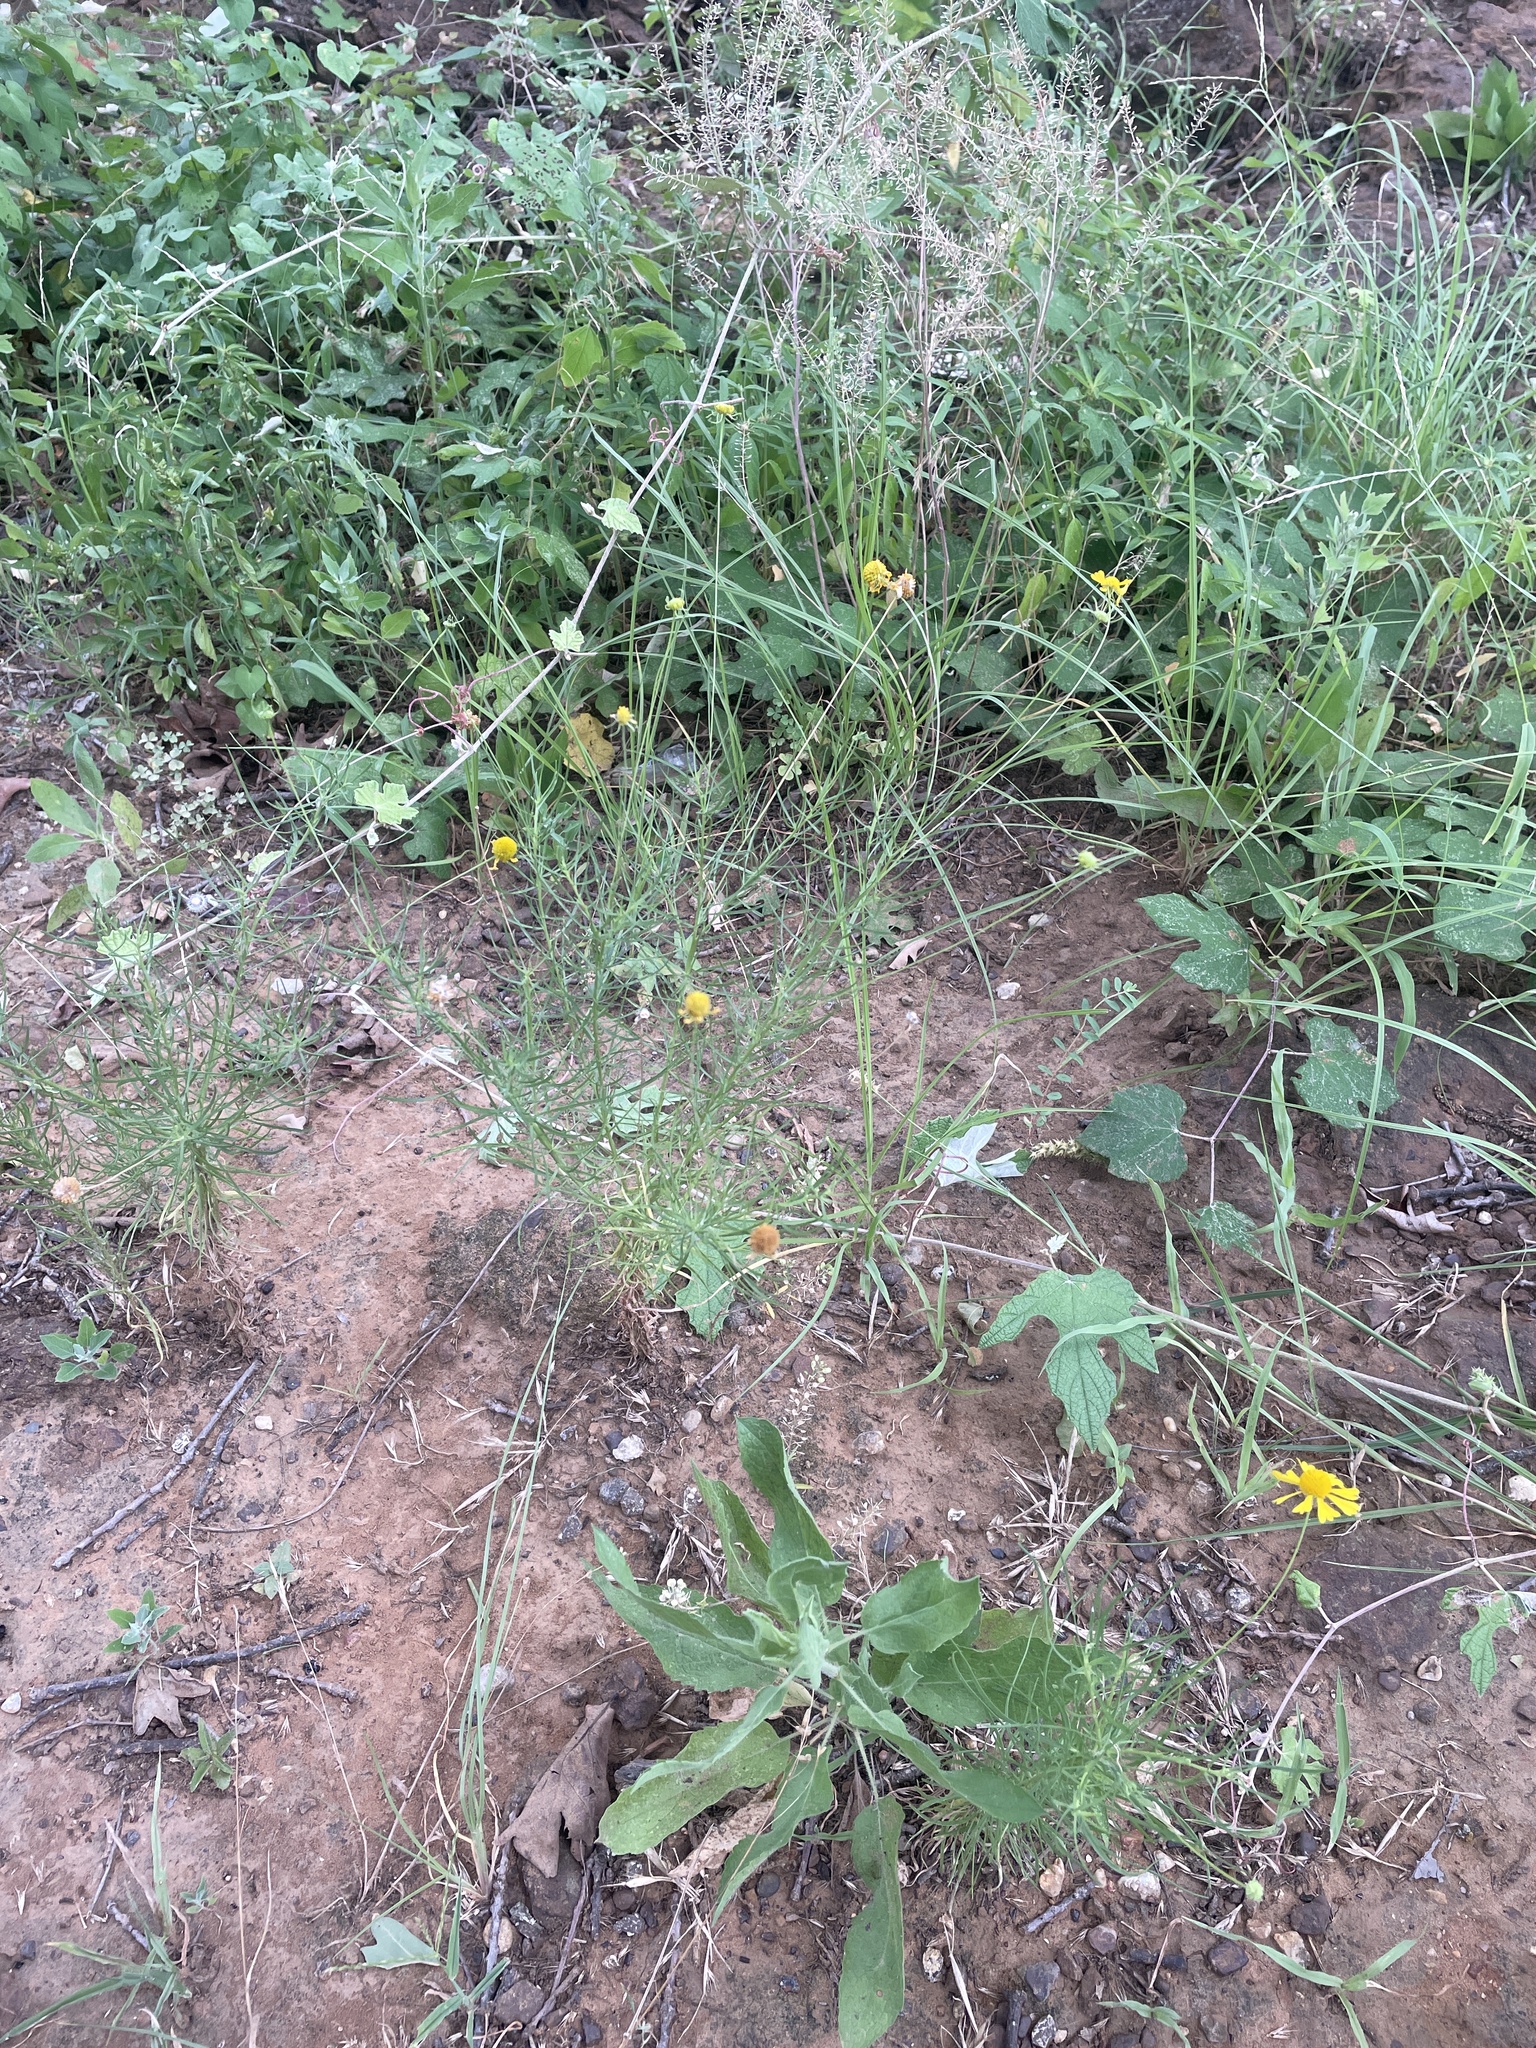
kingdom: Plantae
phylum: Tracheophyta
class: Magnoliopsida
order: Asterales
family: Asteraceae
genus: Helenium
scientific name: Helenium amarum
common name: Bitter sneezeweed
